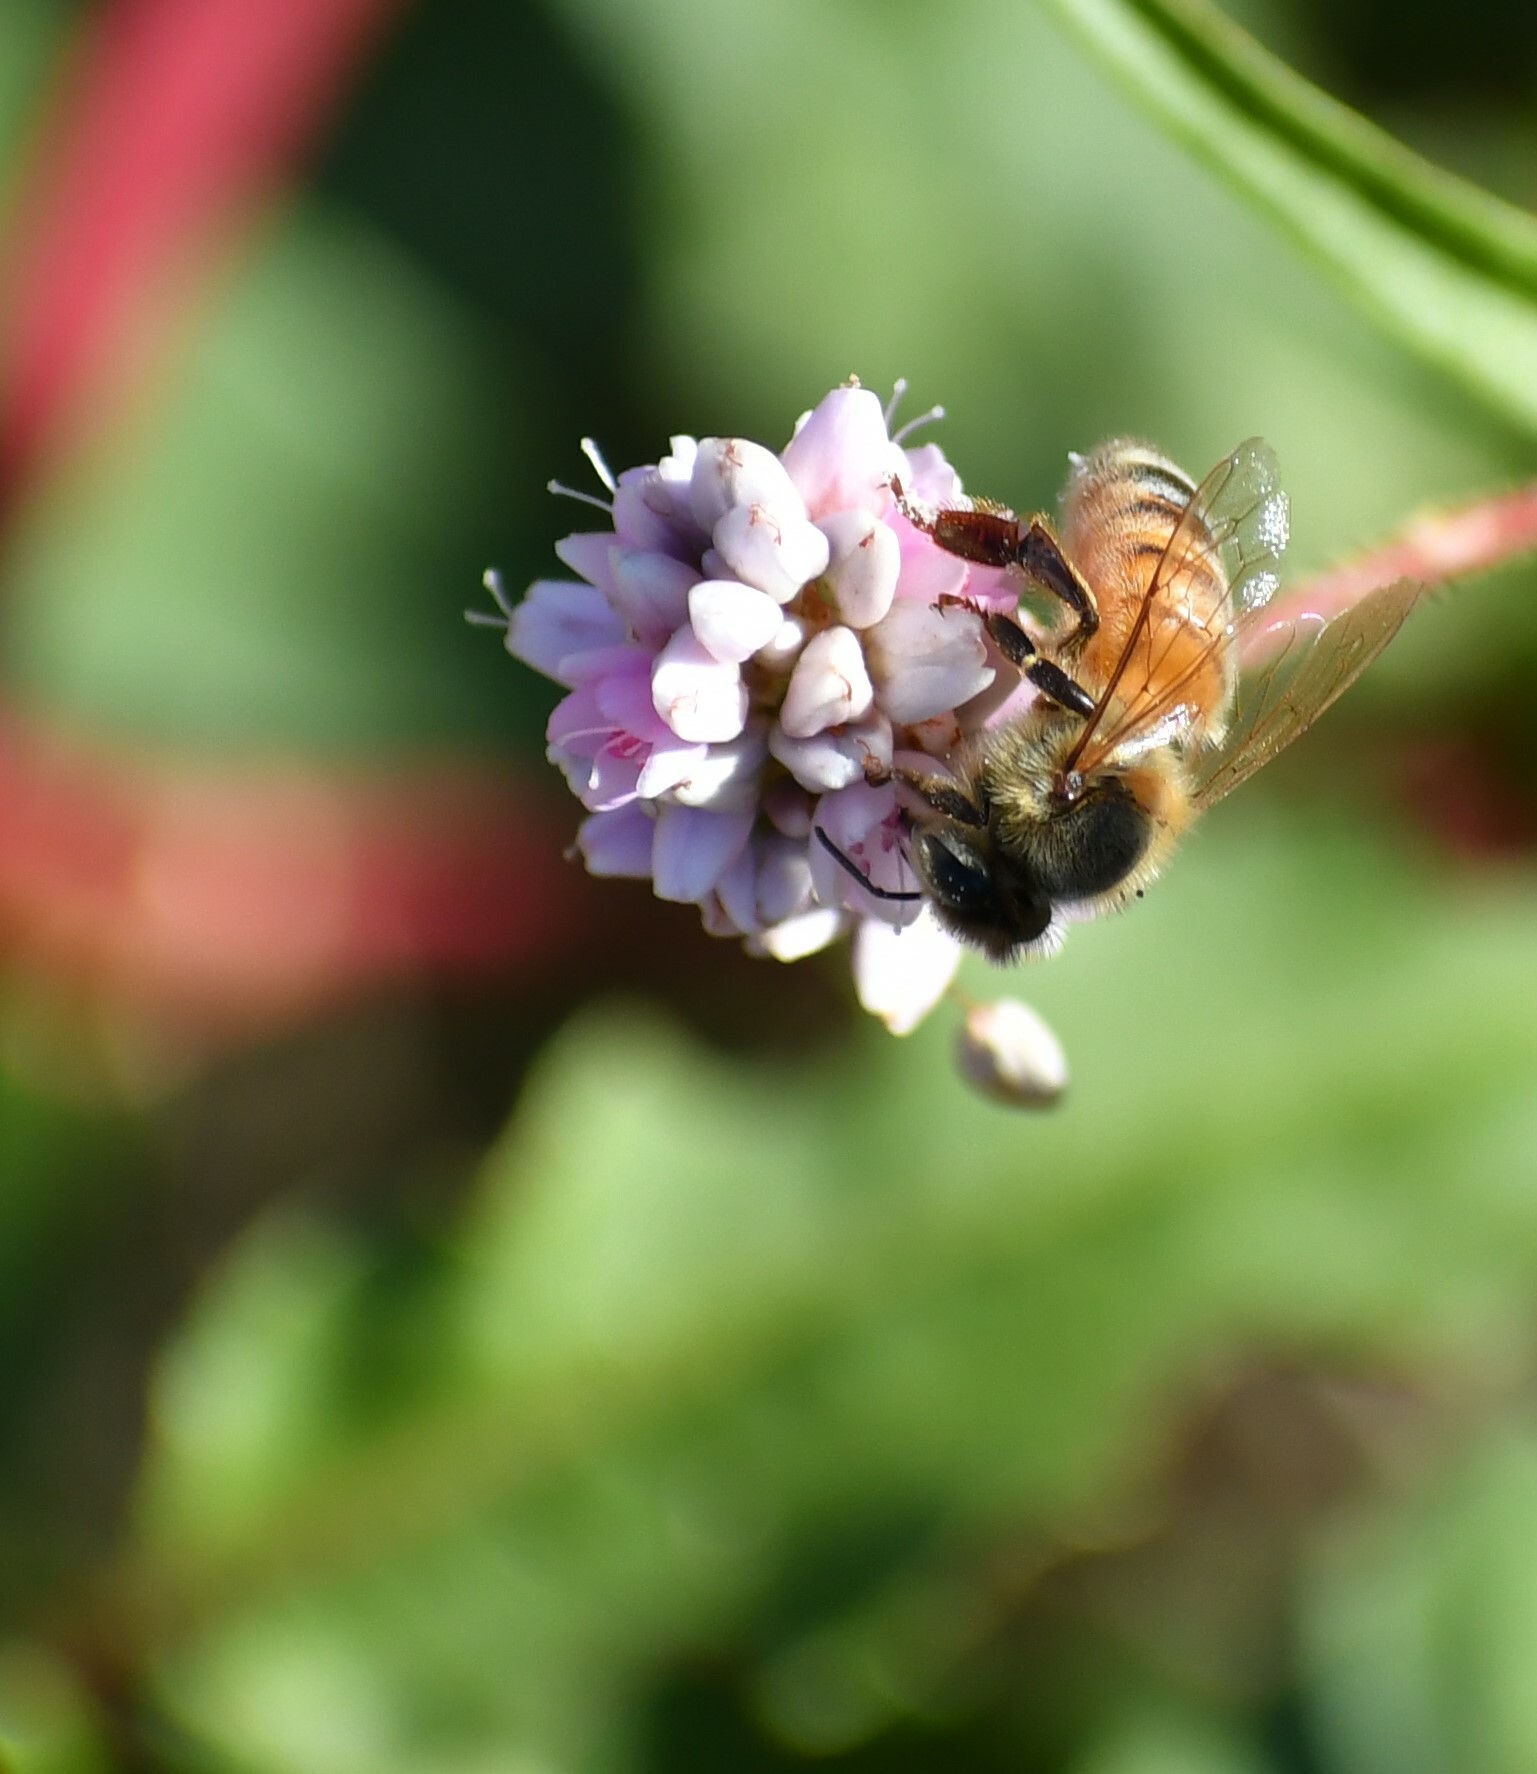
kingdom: Animalia
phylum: Arthropoda
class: Insecta
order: Hymenoptera
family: Apidae
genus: Apis
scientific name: Apis mellifera
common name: Honey bee
